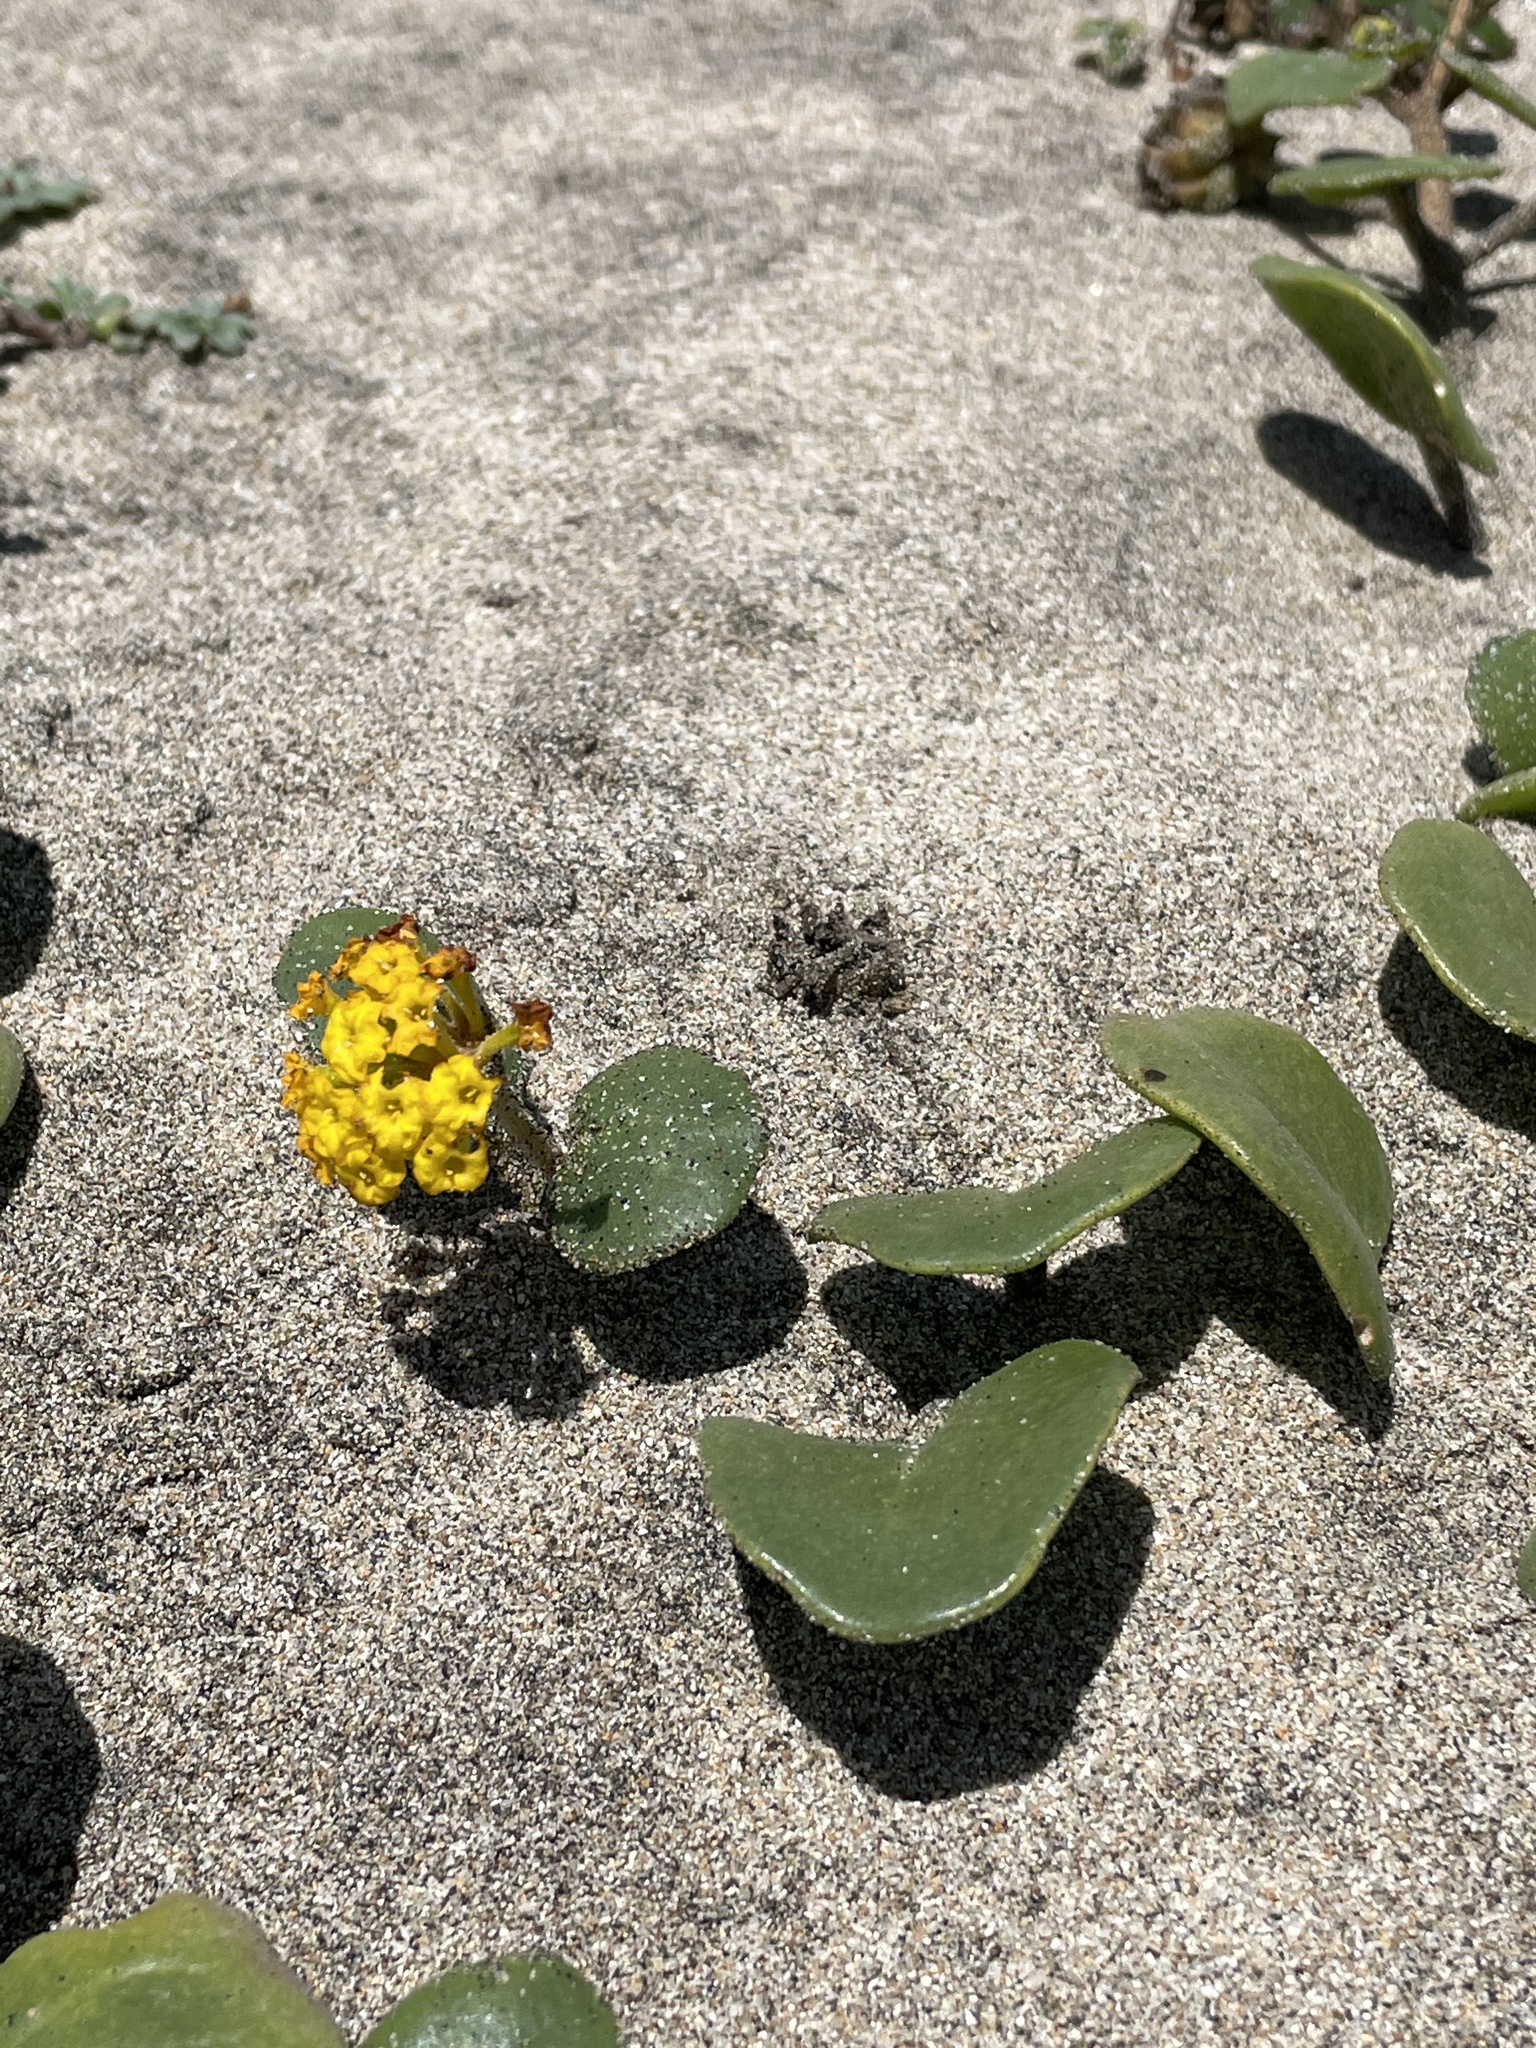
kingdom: Plantae
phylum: Tracheophyta
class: Magnoliopsida
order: Caryophyllales
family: Nyctaginaceae
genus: Abronia
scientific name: Abronia latifolia
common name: Yellow sand-verbena
